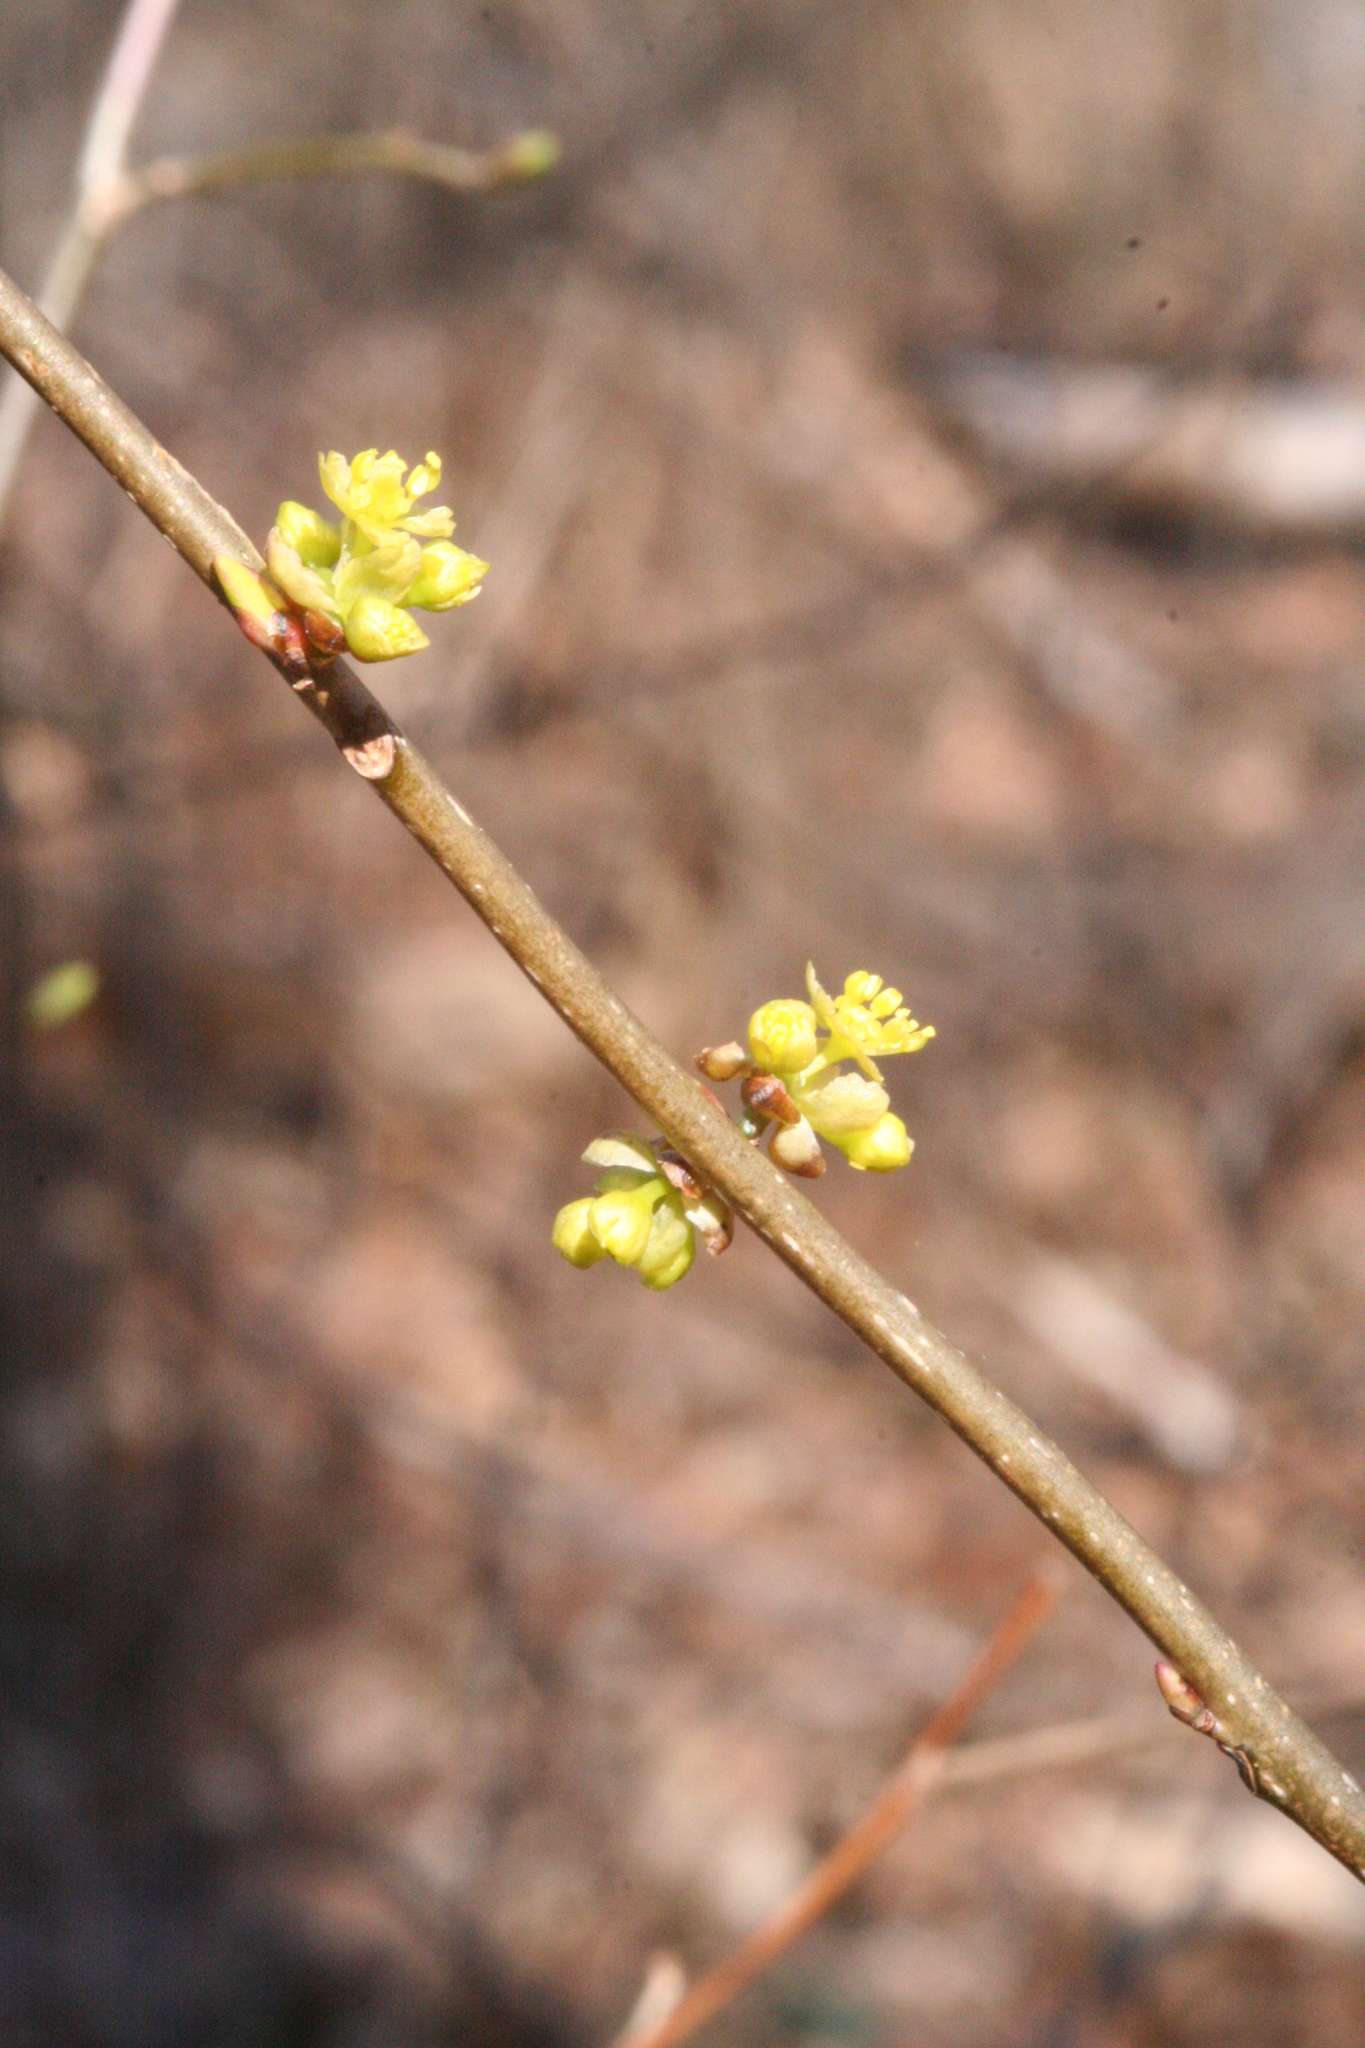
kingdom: Plantae
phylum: Tracheophyta
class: Magnoliopsida
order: Laurales
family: Lauraceae
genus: Lindera
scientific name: Lindera benzoin
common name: Spicebush
